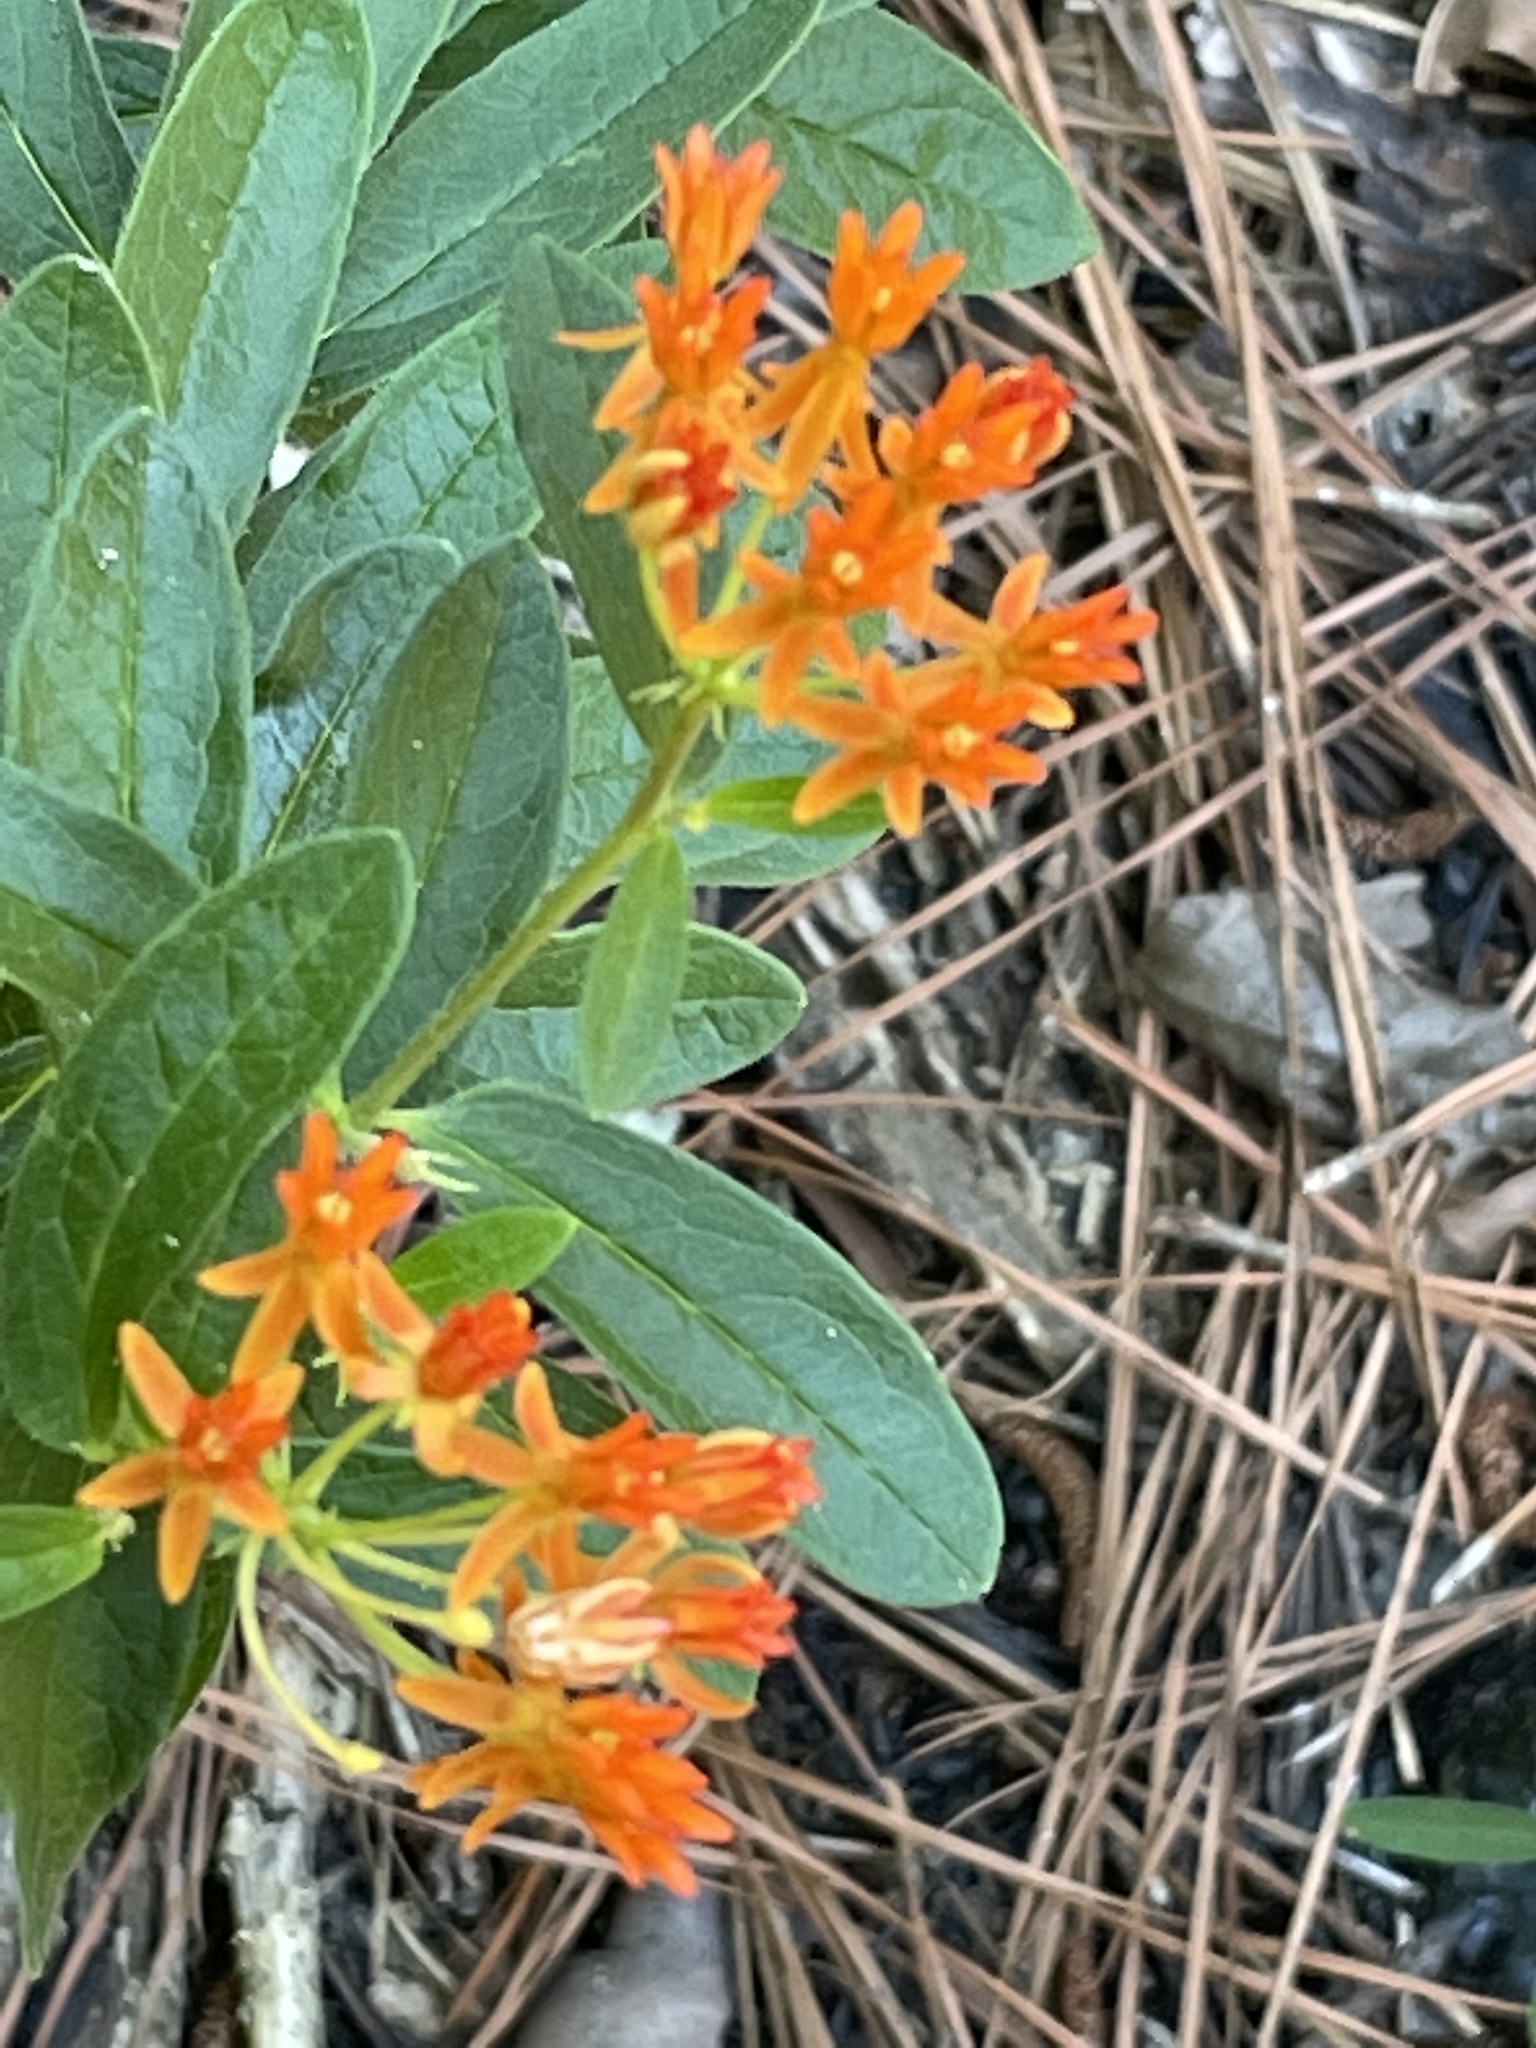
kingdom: Plantae
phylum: Tracheophyta
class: Magnoliopsida
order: Gentianales
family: Apocynaceae
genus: Asclepias
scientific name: Asclepias tuberosa
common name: Butterfly milkweed
